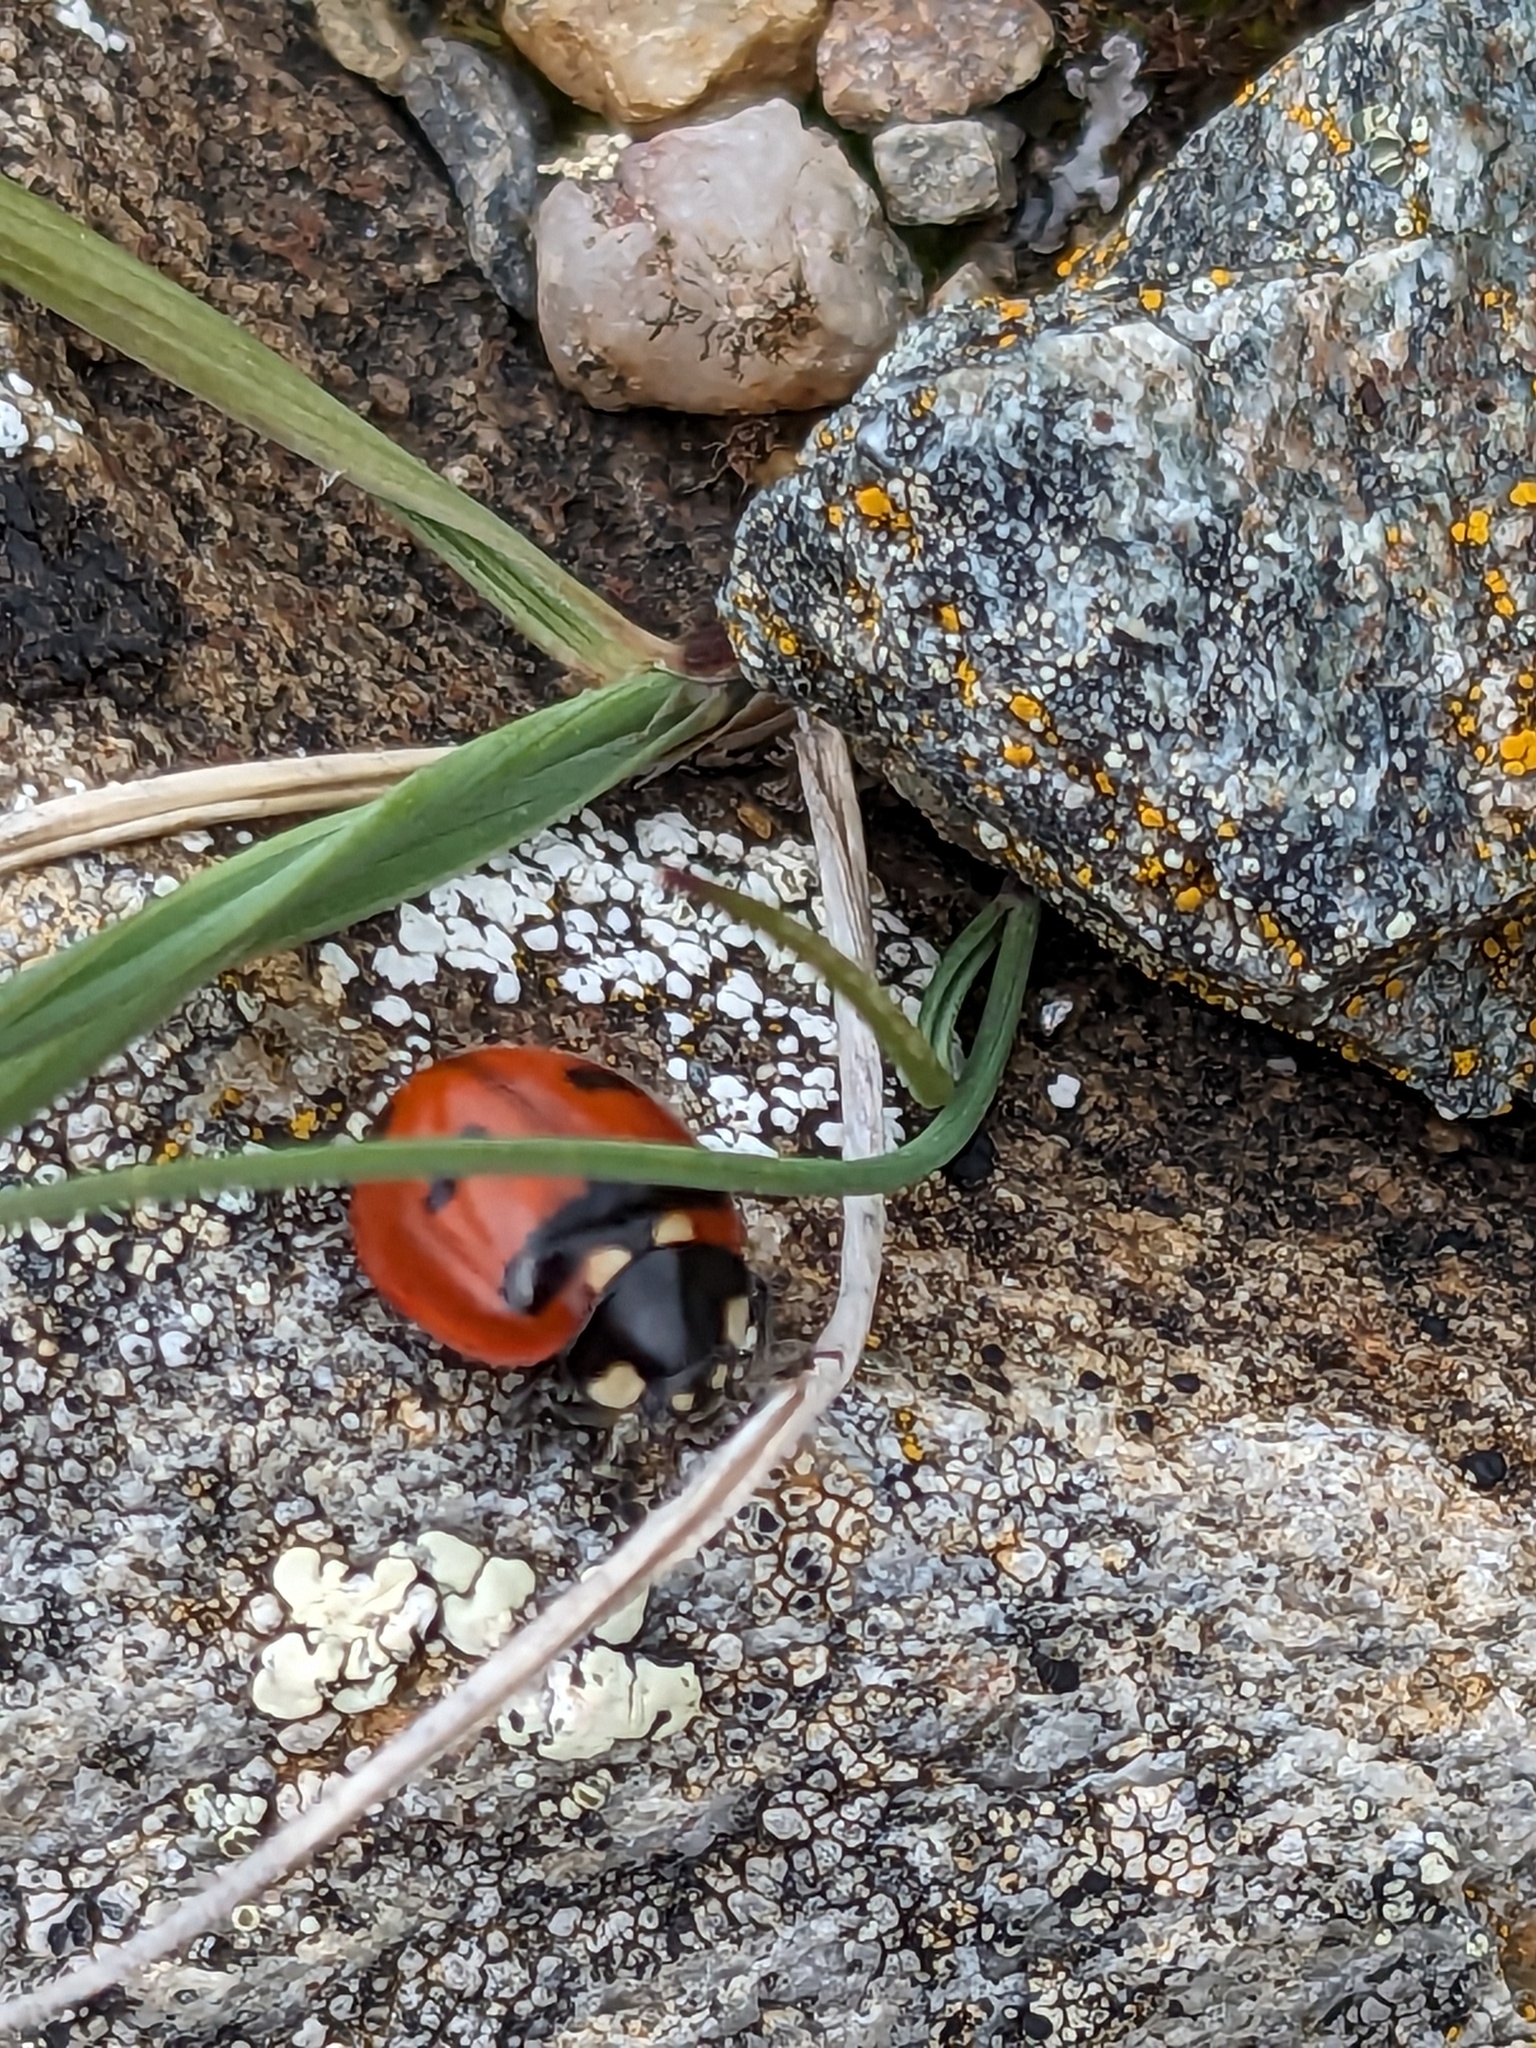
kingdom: Animalia
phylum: Arthropoda
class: Insecta
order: Coleoptera
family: Coccinellidae
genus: Coccinella
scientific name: Coccinella transversoguttata
